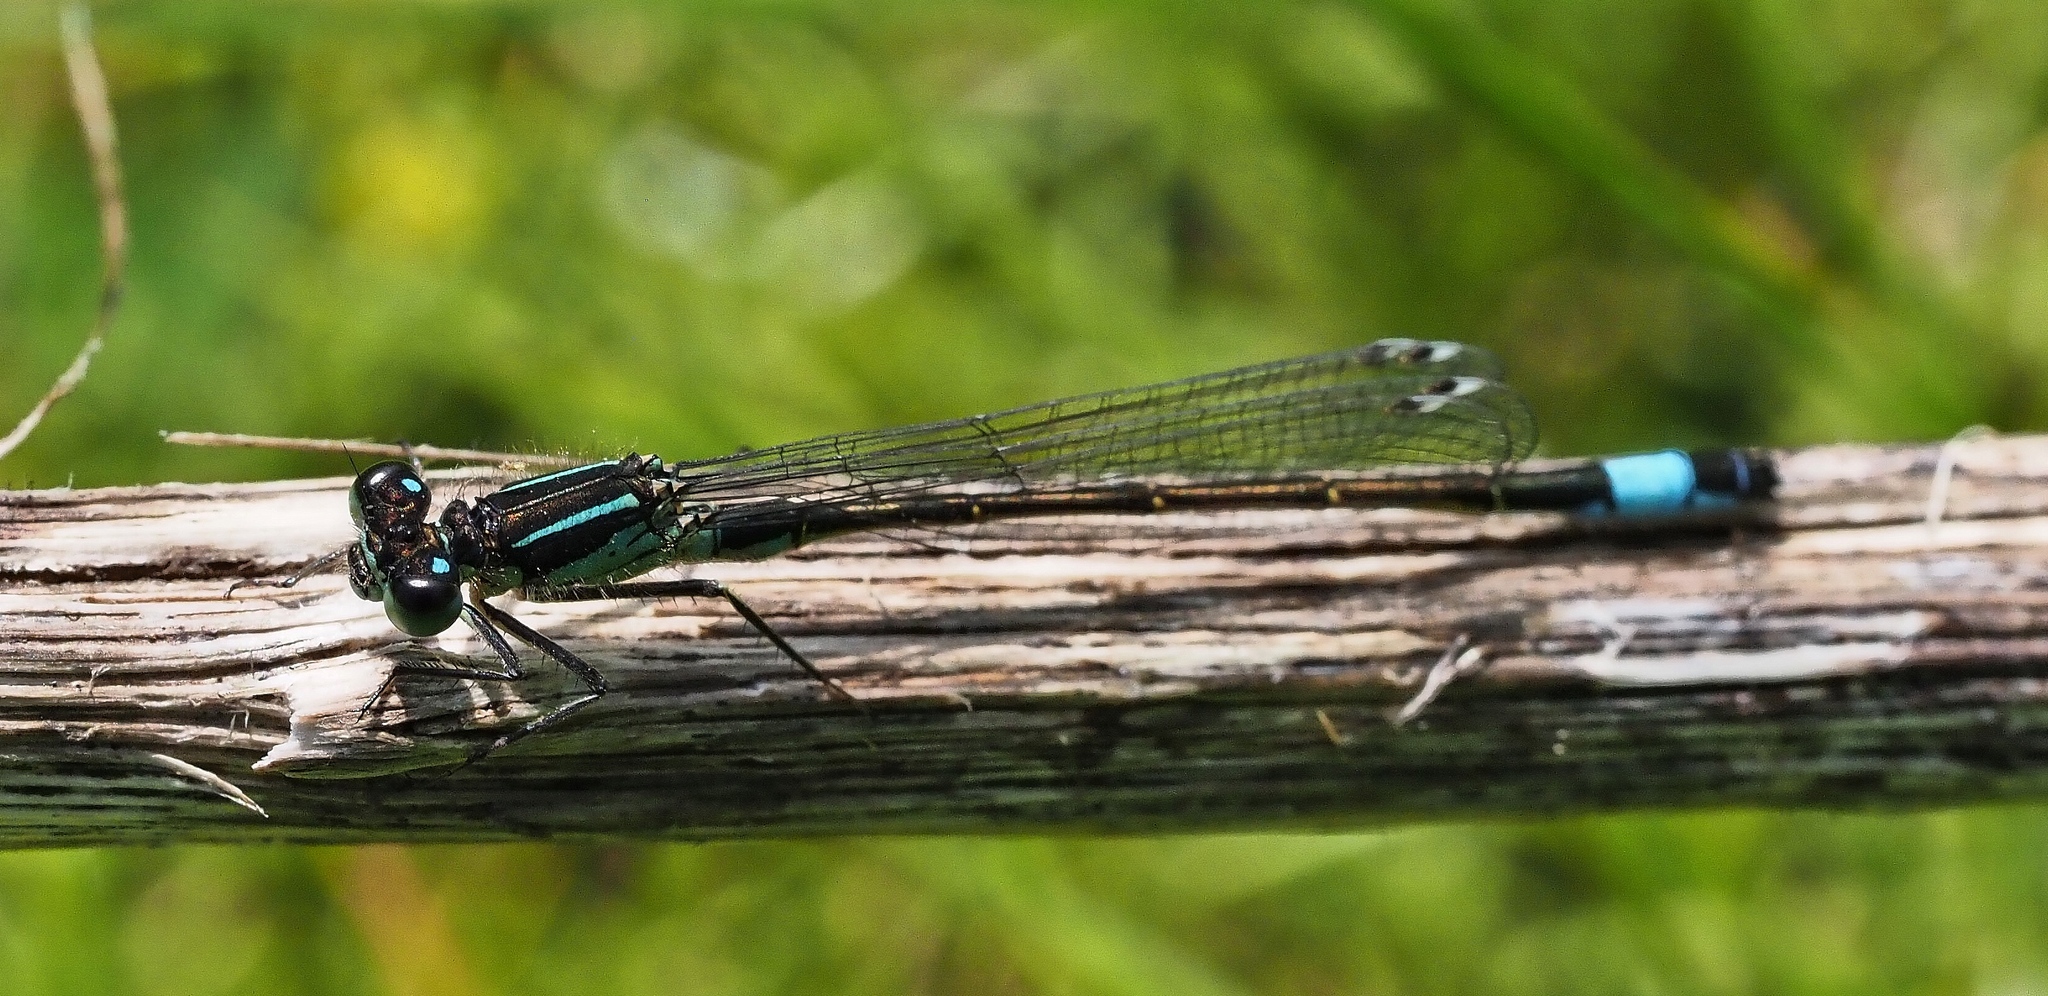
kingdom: Animalia
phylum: Arthropoda
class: Insecta
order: Odonata
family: Coenagrionidae
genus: Ischnura
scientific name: Ischnura elegans
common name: Blue-tailed damselfly
